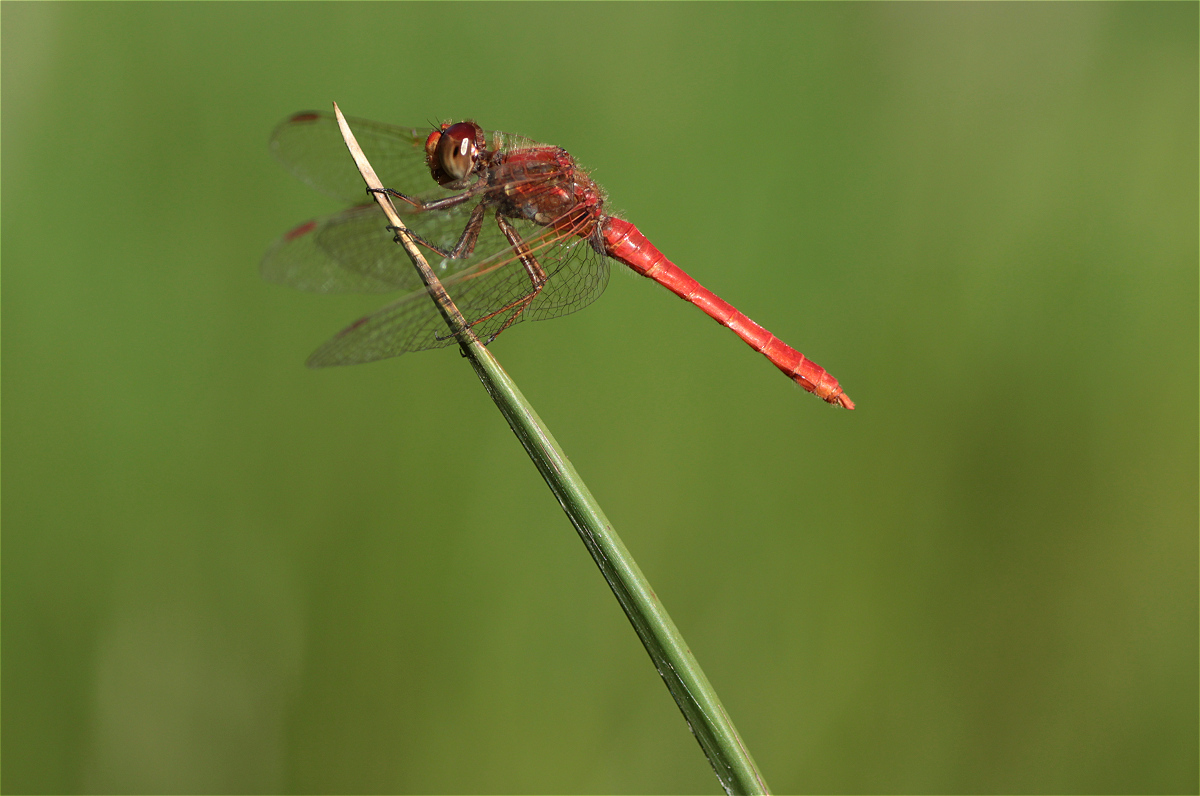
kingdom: Animalia
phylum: Arthropoda
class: Insecta
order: Odonata
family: Libellulidae
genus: Sympetrum
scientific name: Sympetrum gilvum
